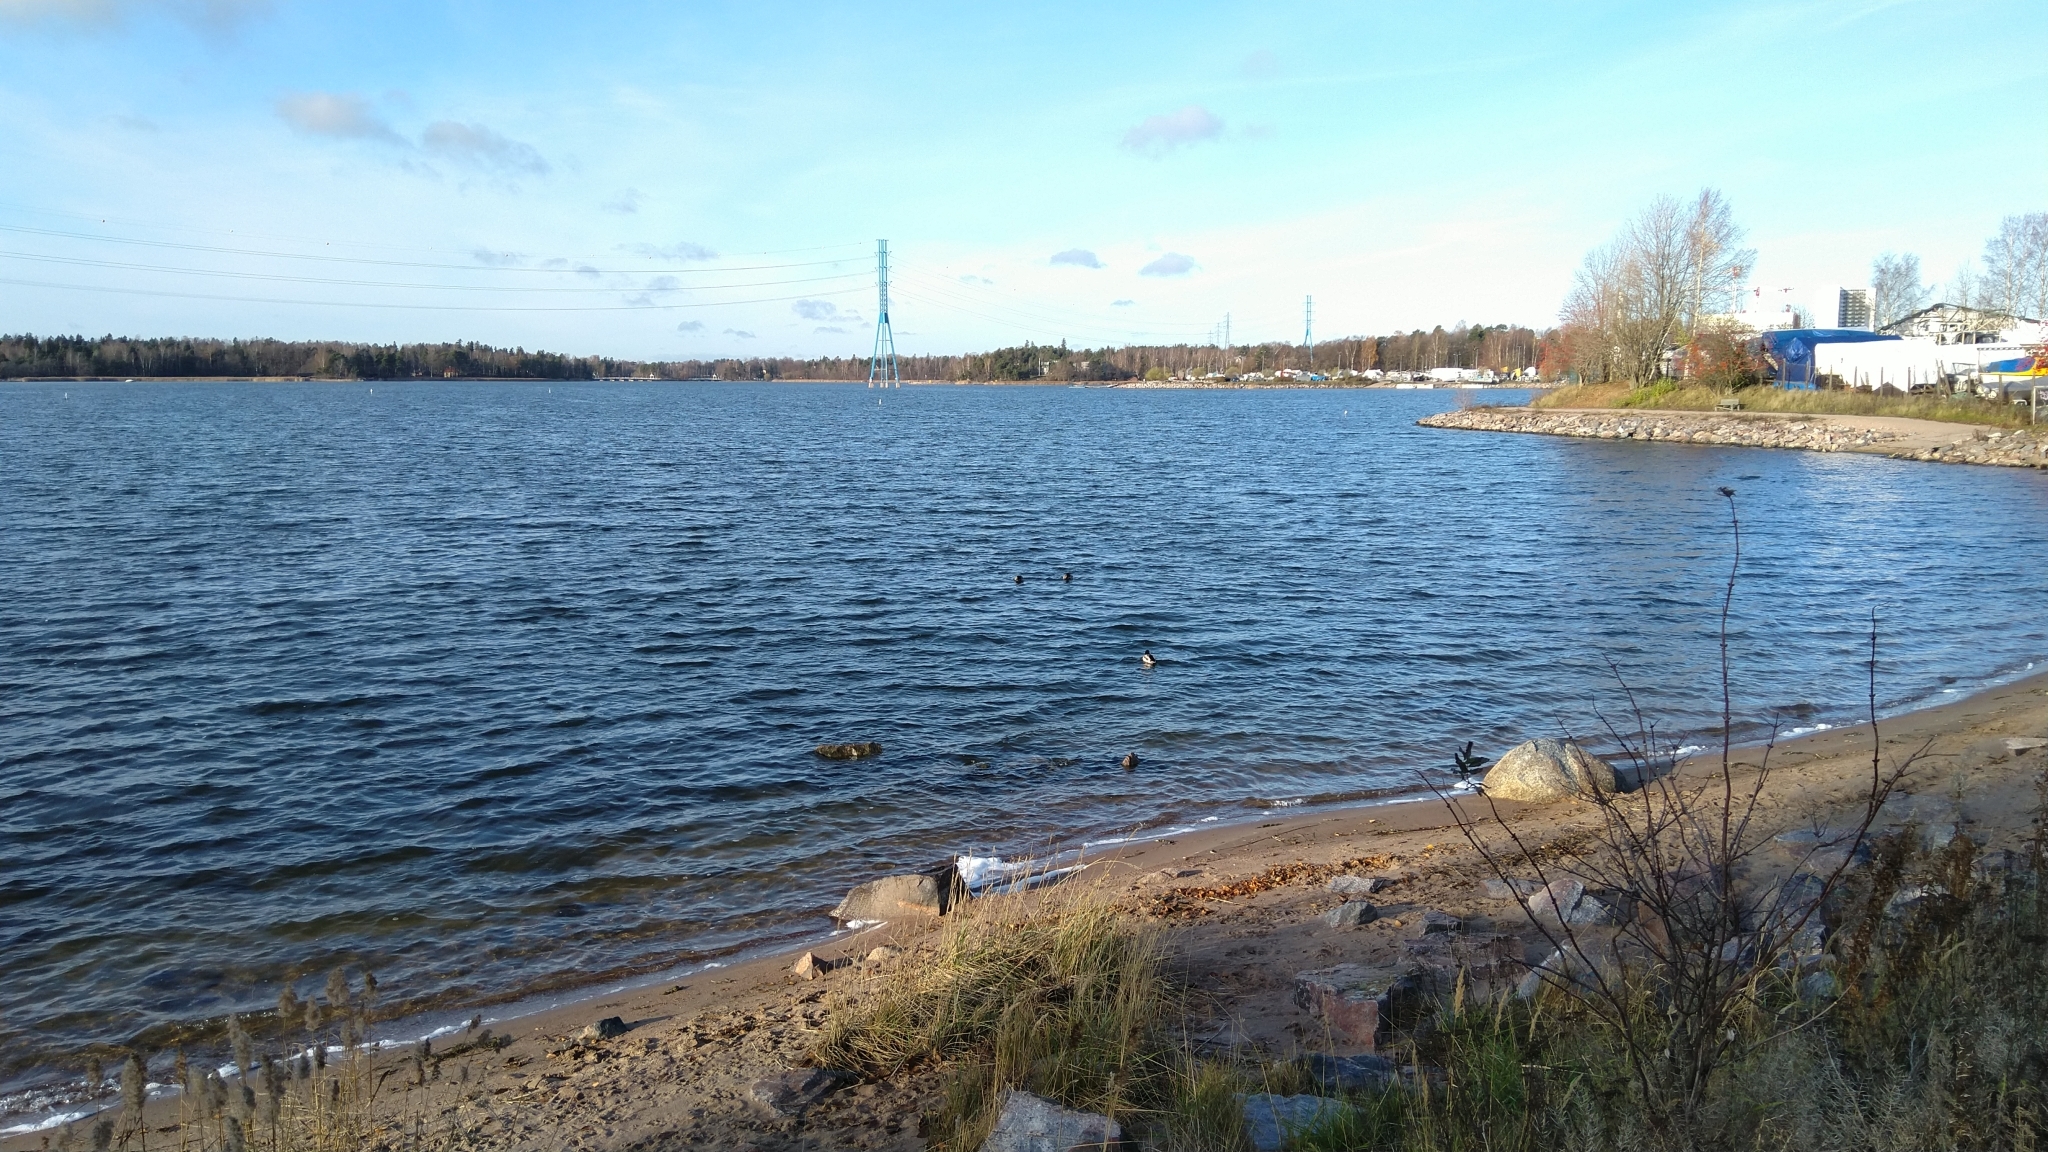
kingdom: Animalia
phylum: Chordata
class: Aves
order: Anseriformes
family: Anatidae
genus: Anas
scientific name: Anas platyrhynchos
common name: Mallard
